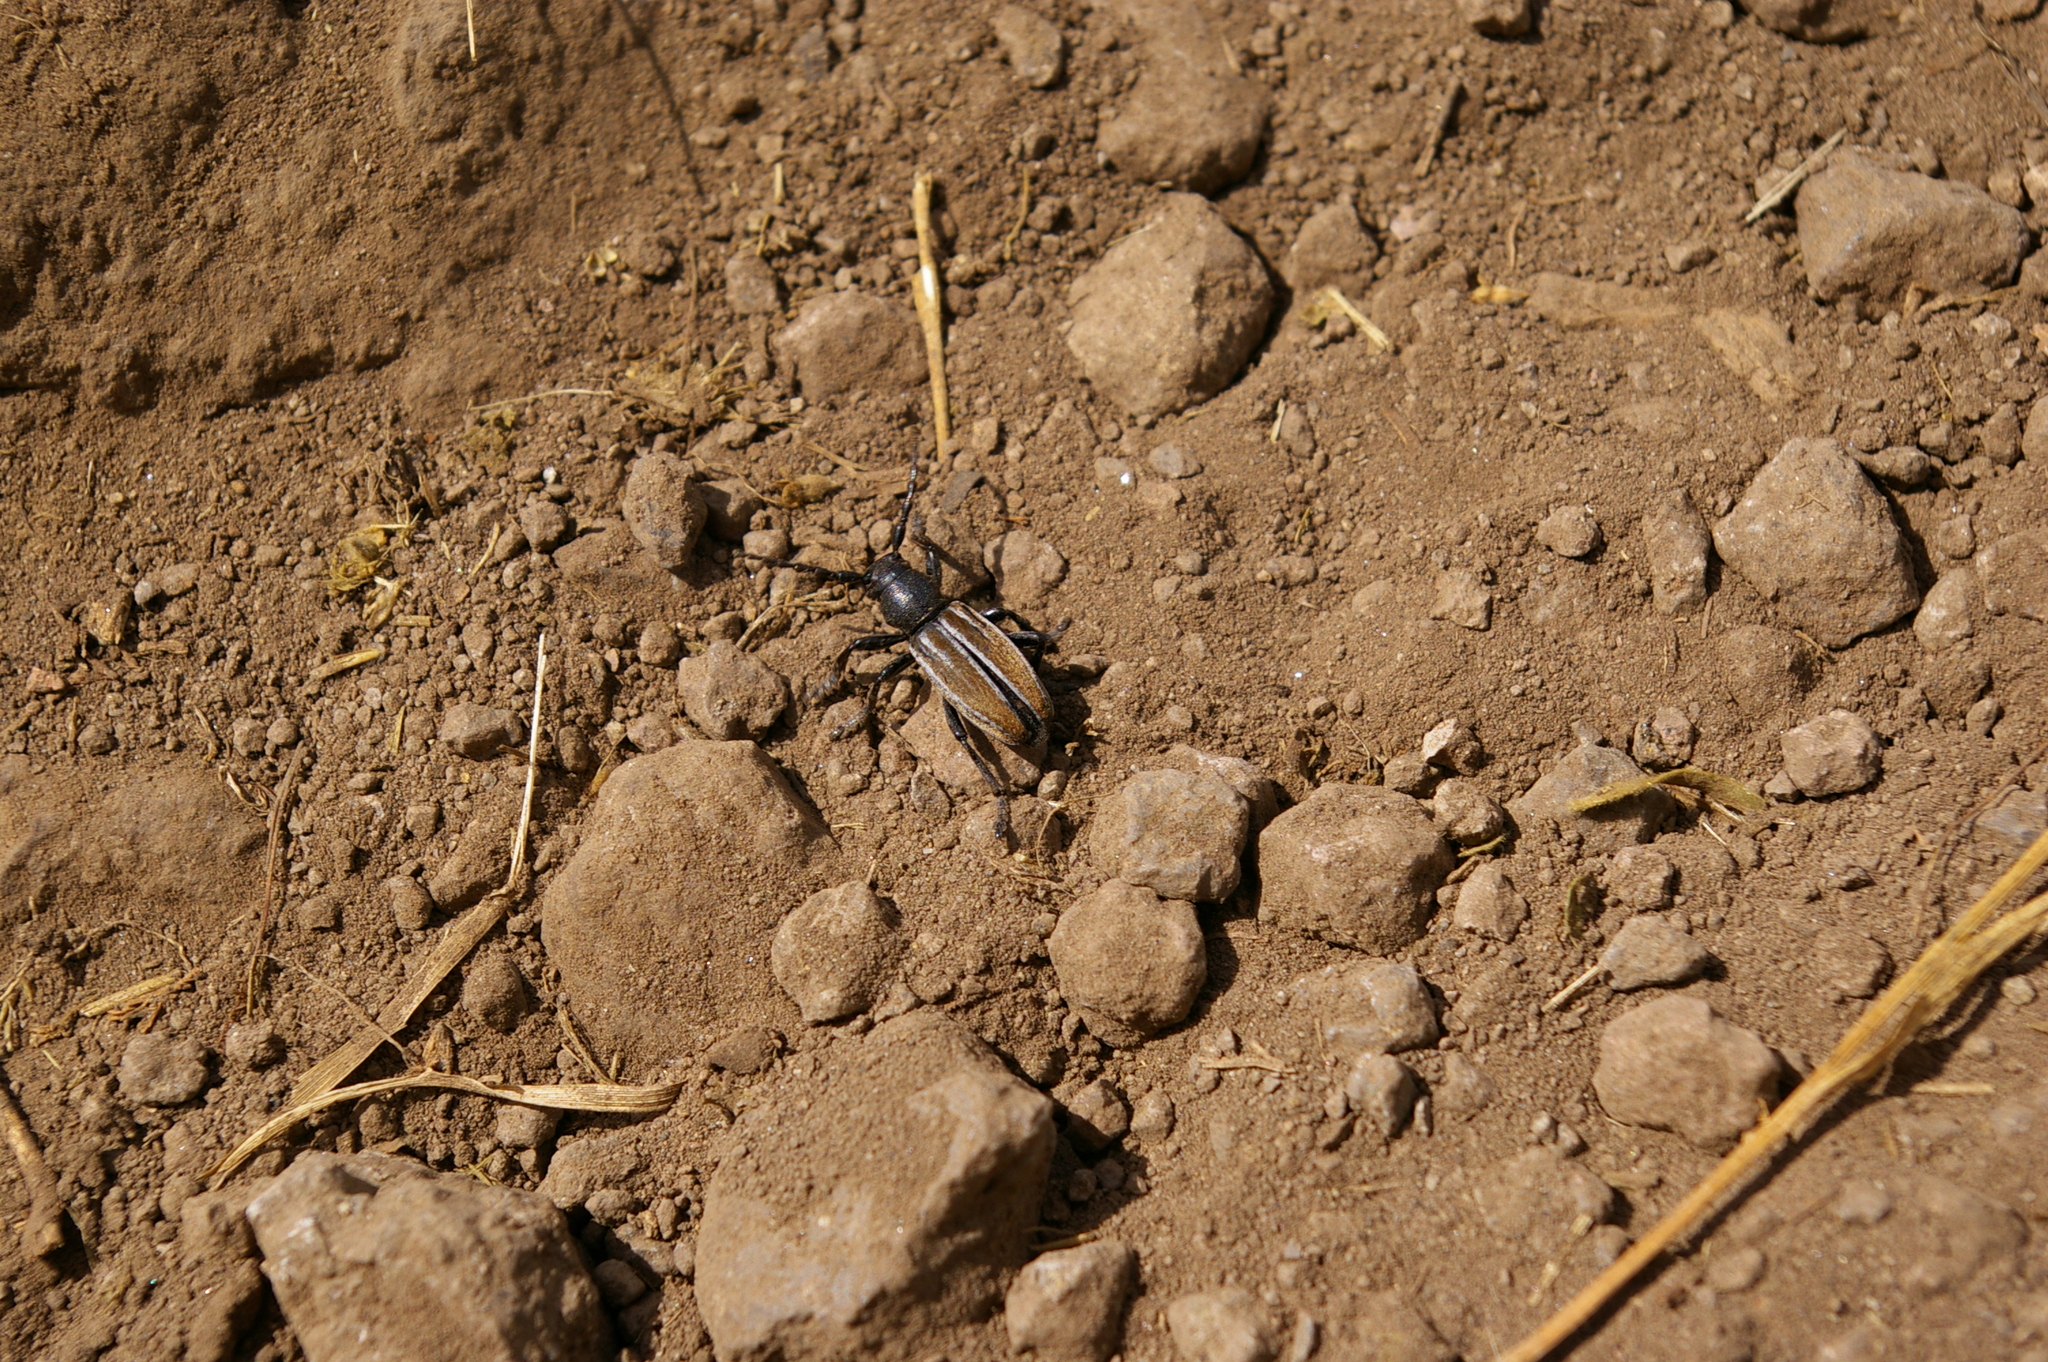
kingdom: Animalia
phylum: Arthropoda
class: Insecta
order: Coleoptera
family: Cerambycidae
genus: Iberodorcadion
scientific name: Iberodorcadion fuliginator
